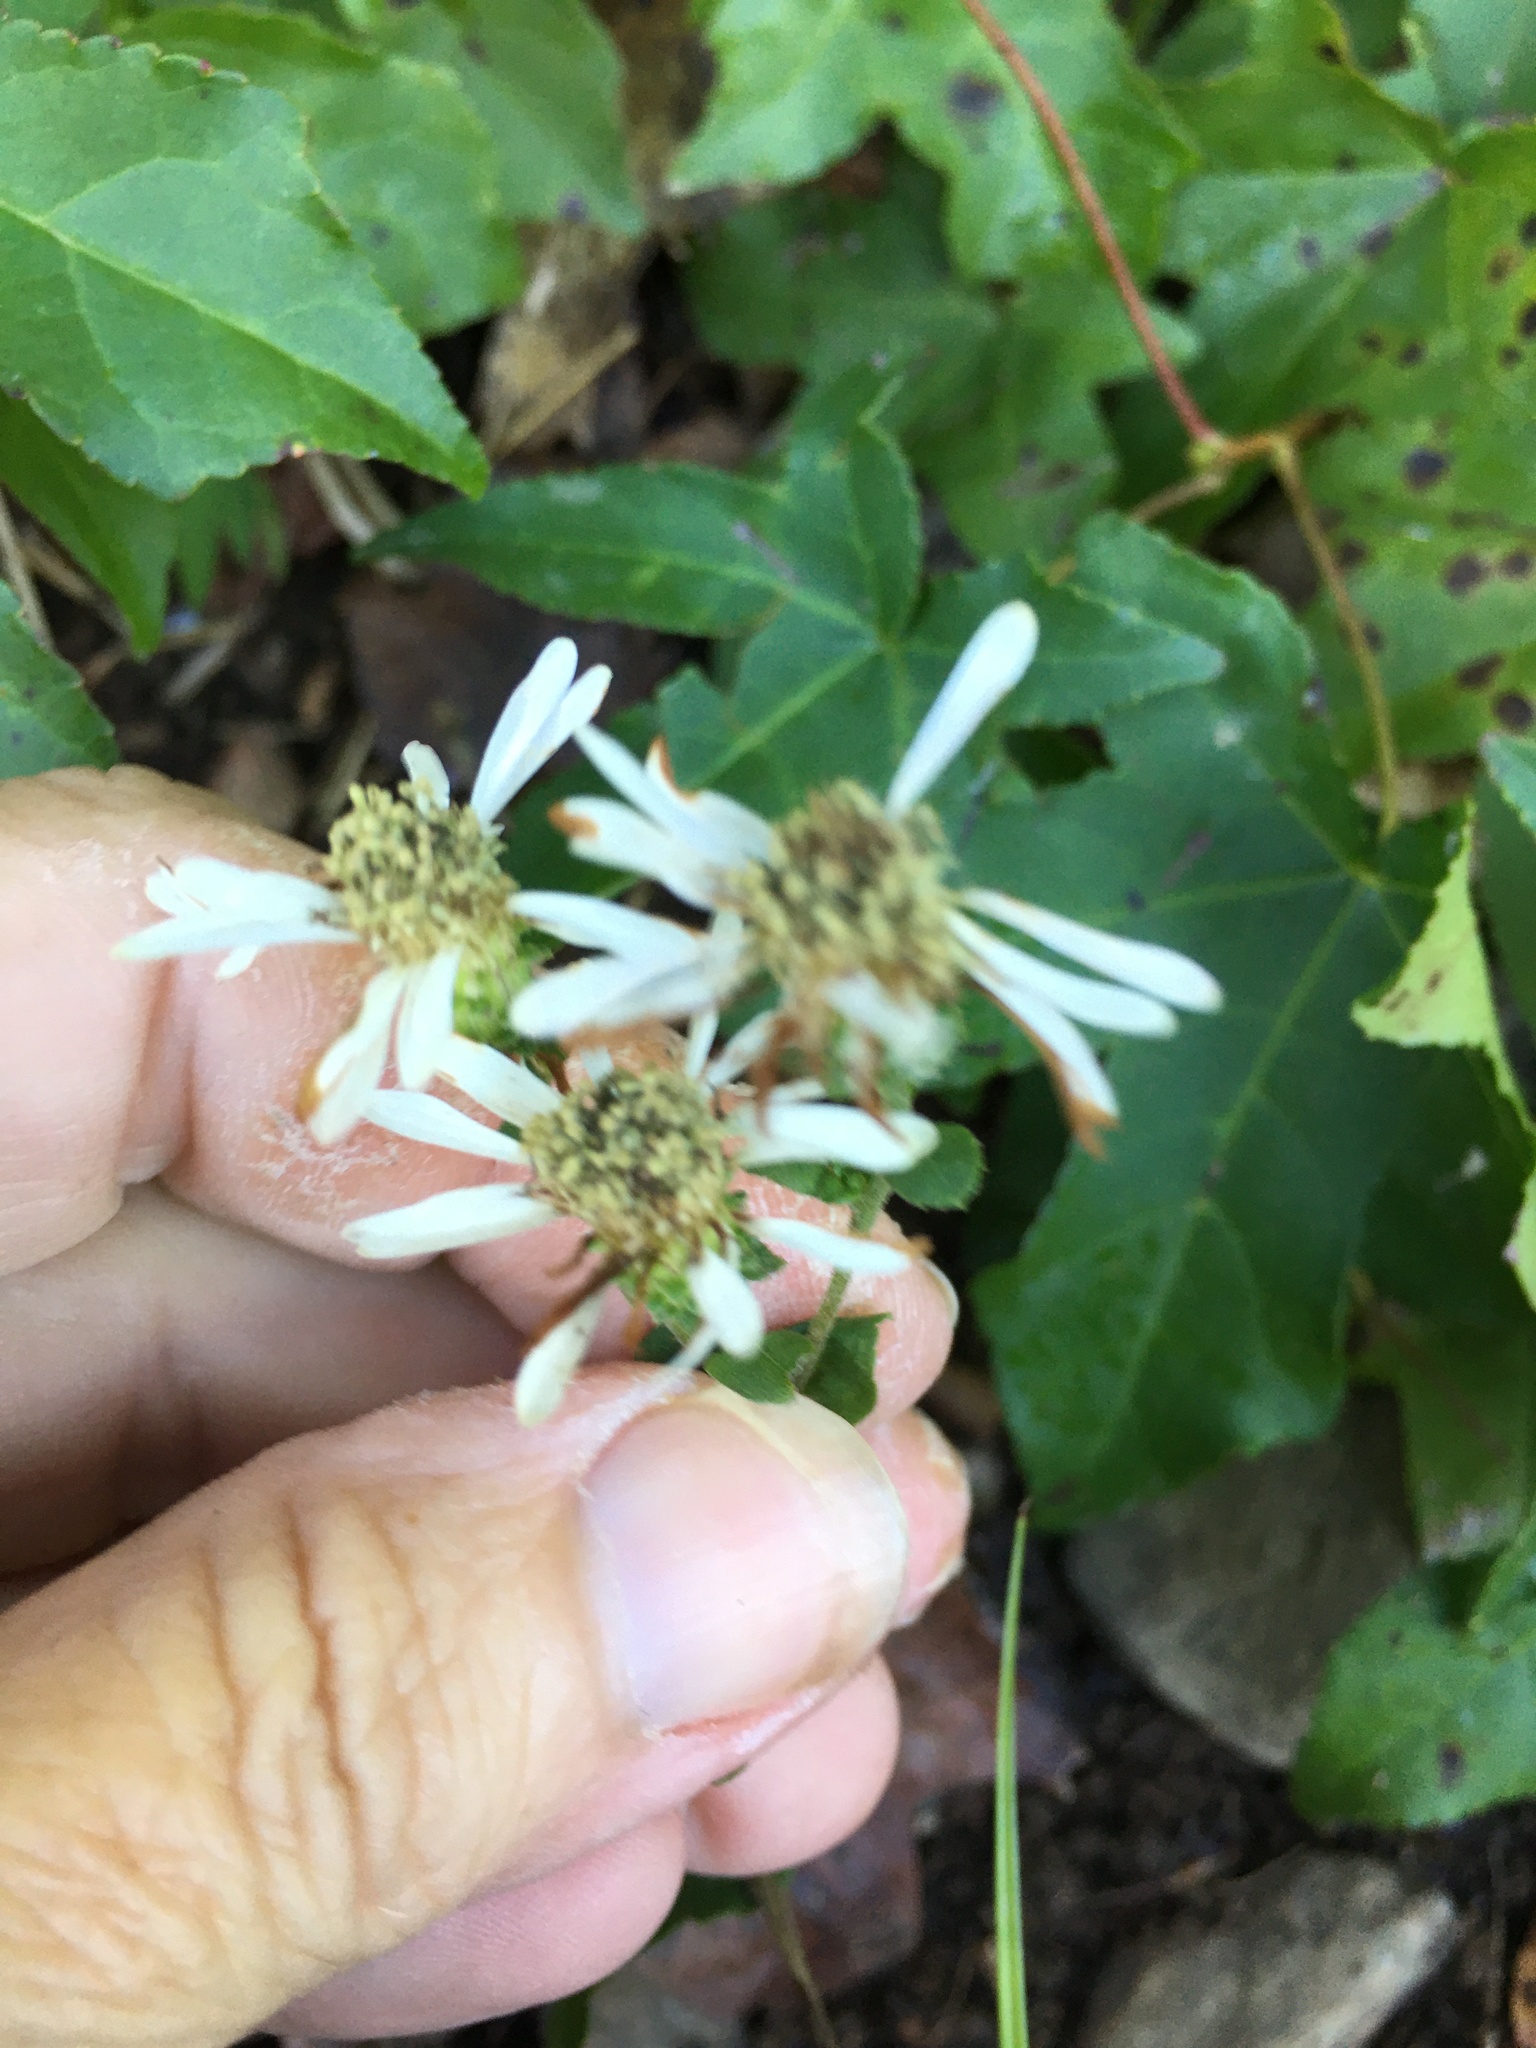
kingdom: Plantae
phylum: Tracheophyta
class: Magnoliopsida
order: Asterales
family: Asteraceae
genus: Eurybia
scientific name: Eurybia mirabilis
